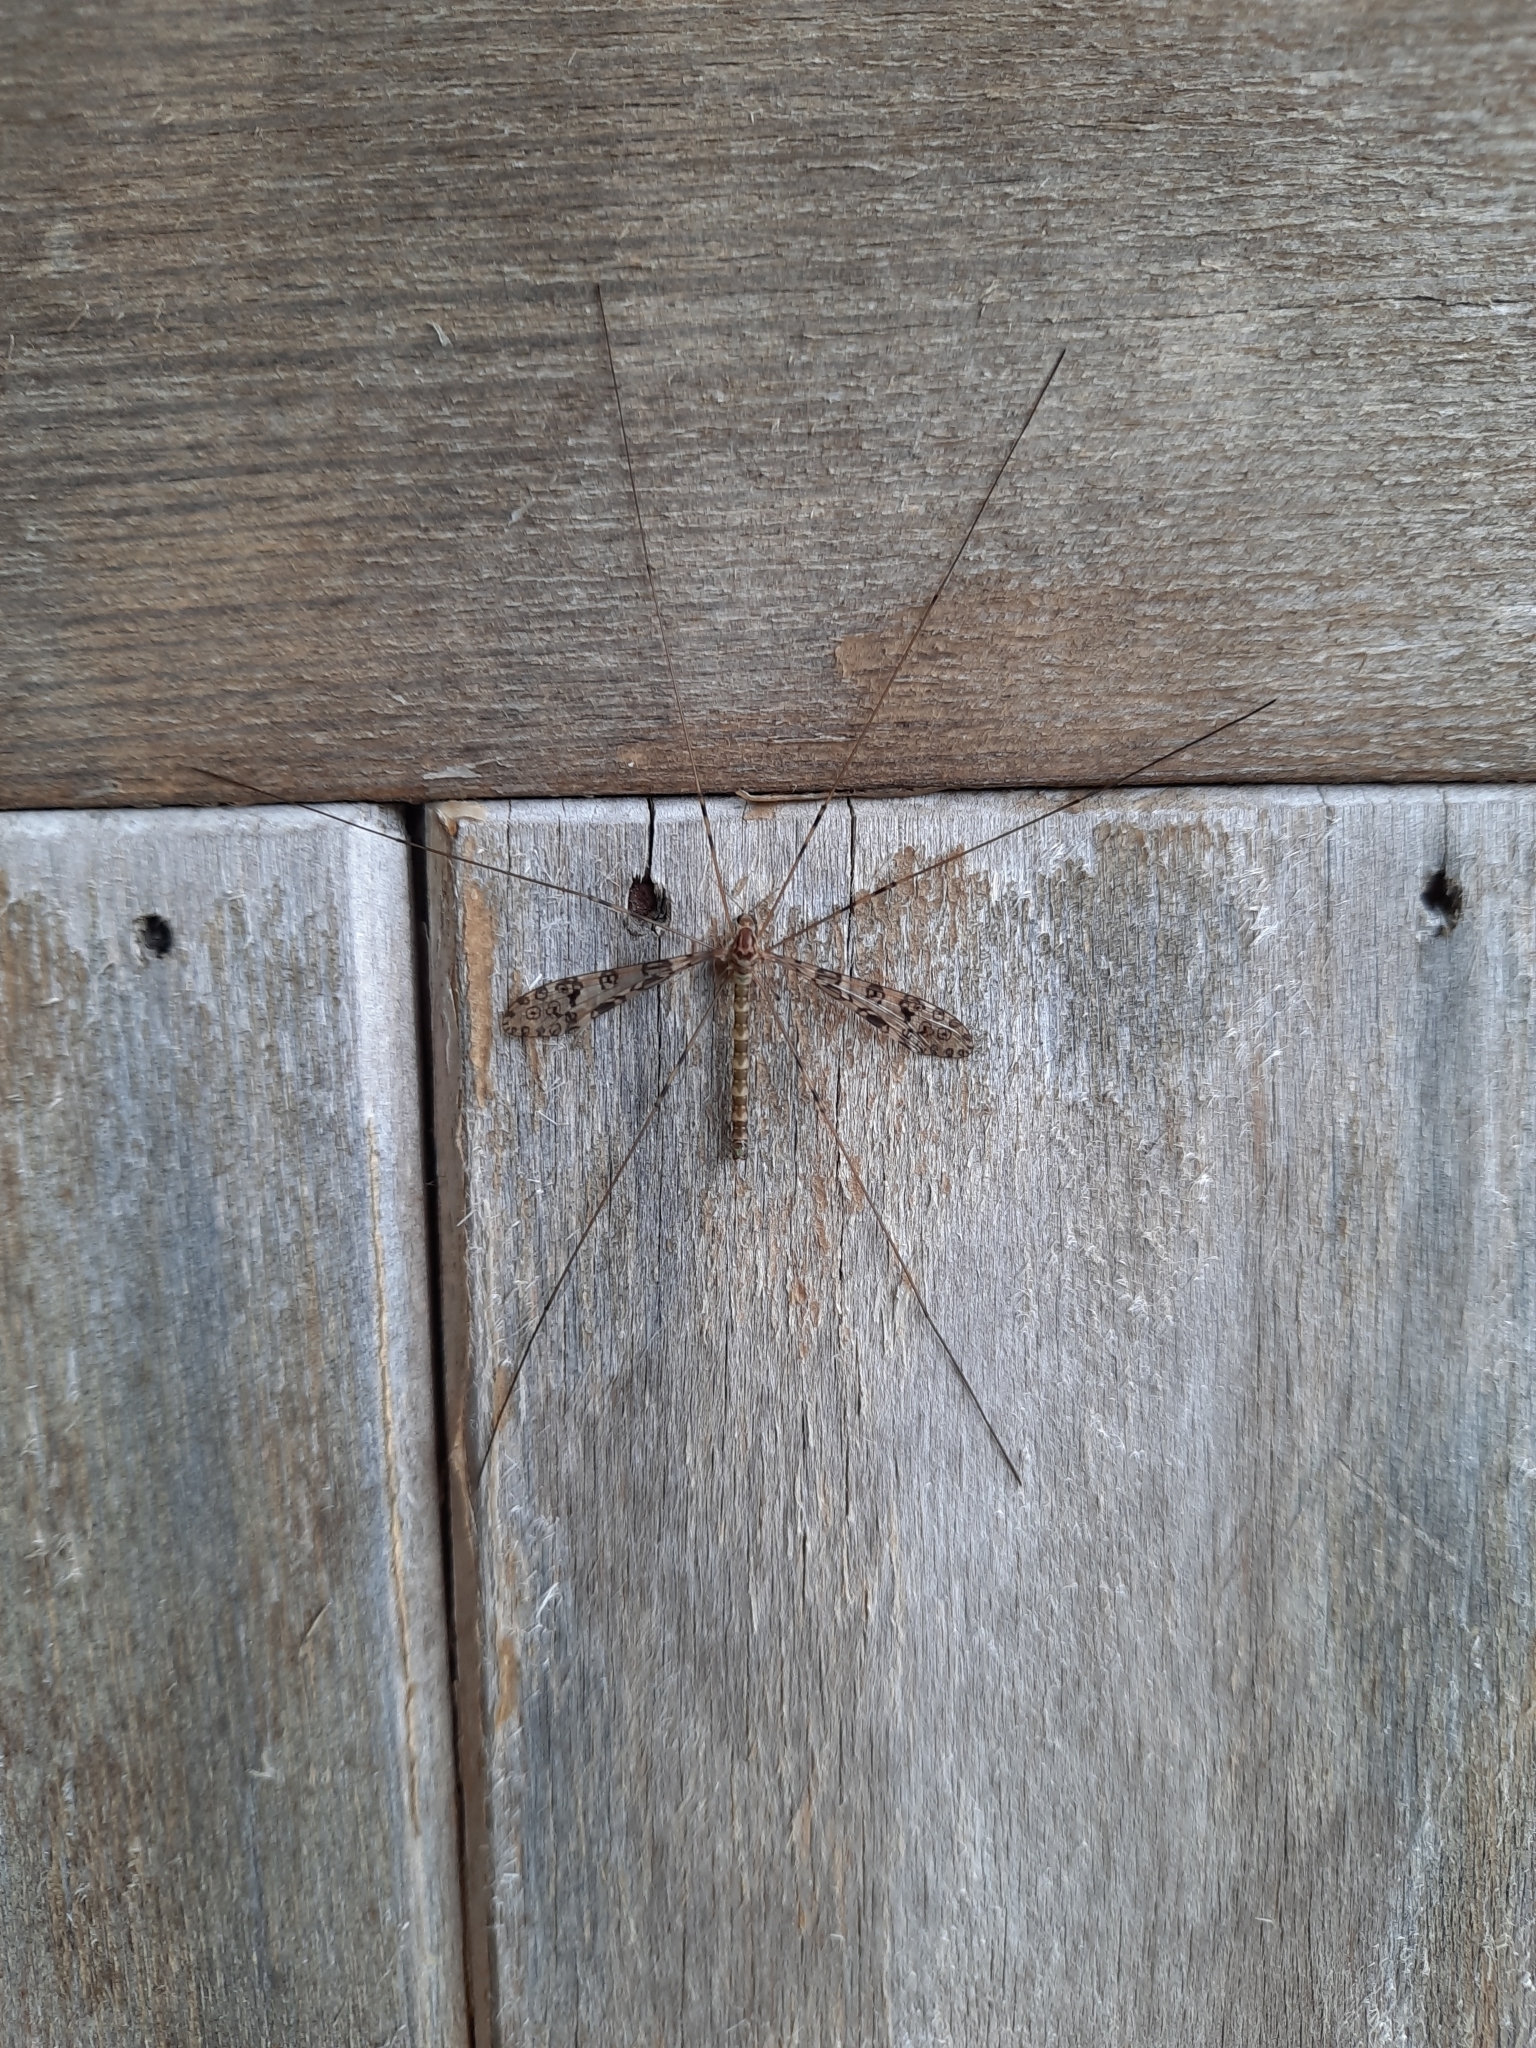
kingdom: Animalia
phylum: Arthropoda
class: Insecta
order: Diptera
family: Limoniidae
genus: Austrolimnophila
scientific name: Austrolimnophila argus
